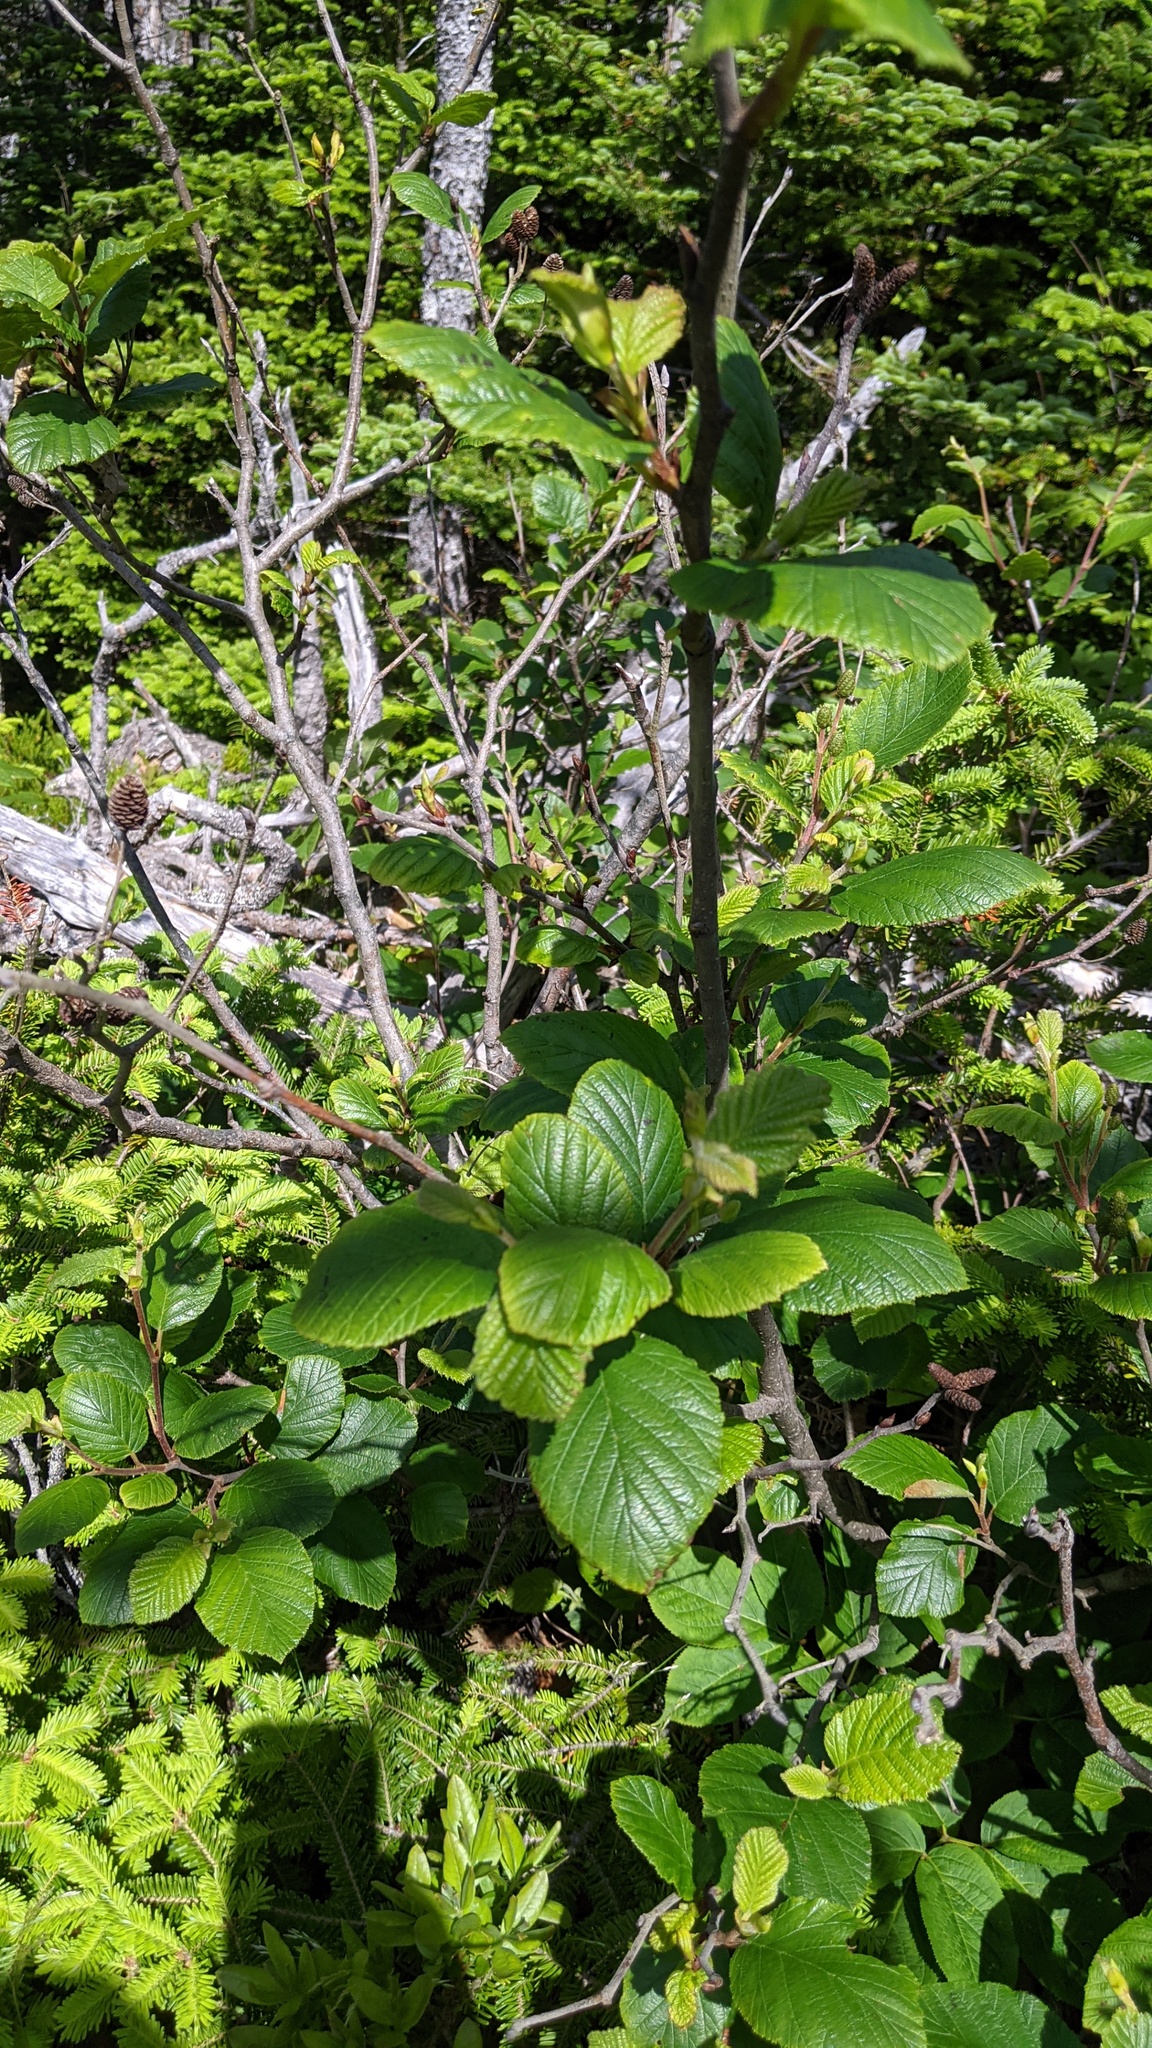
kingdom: Plantae
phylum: Tracheophyta
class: Magnoliopsida
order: Fagales
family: Betulaceae
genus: Alnus
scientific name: Alnus alnobetula
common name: Green alder
